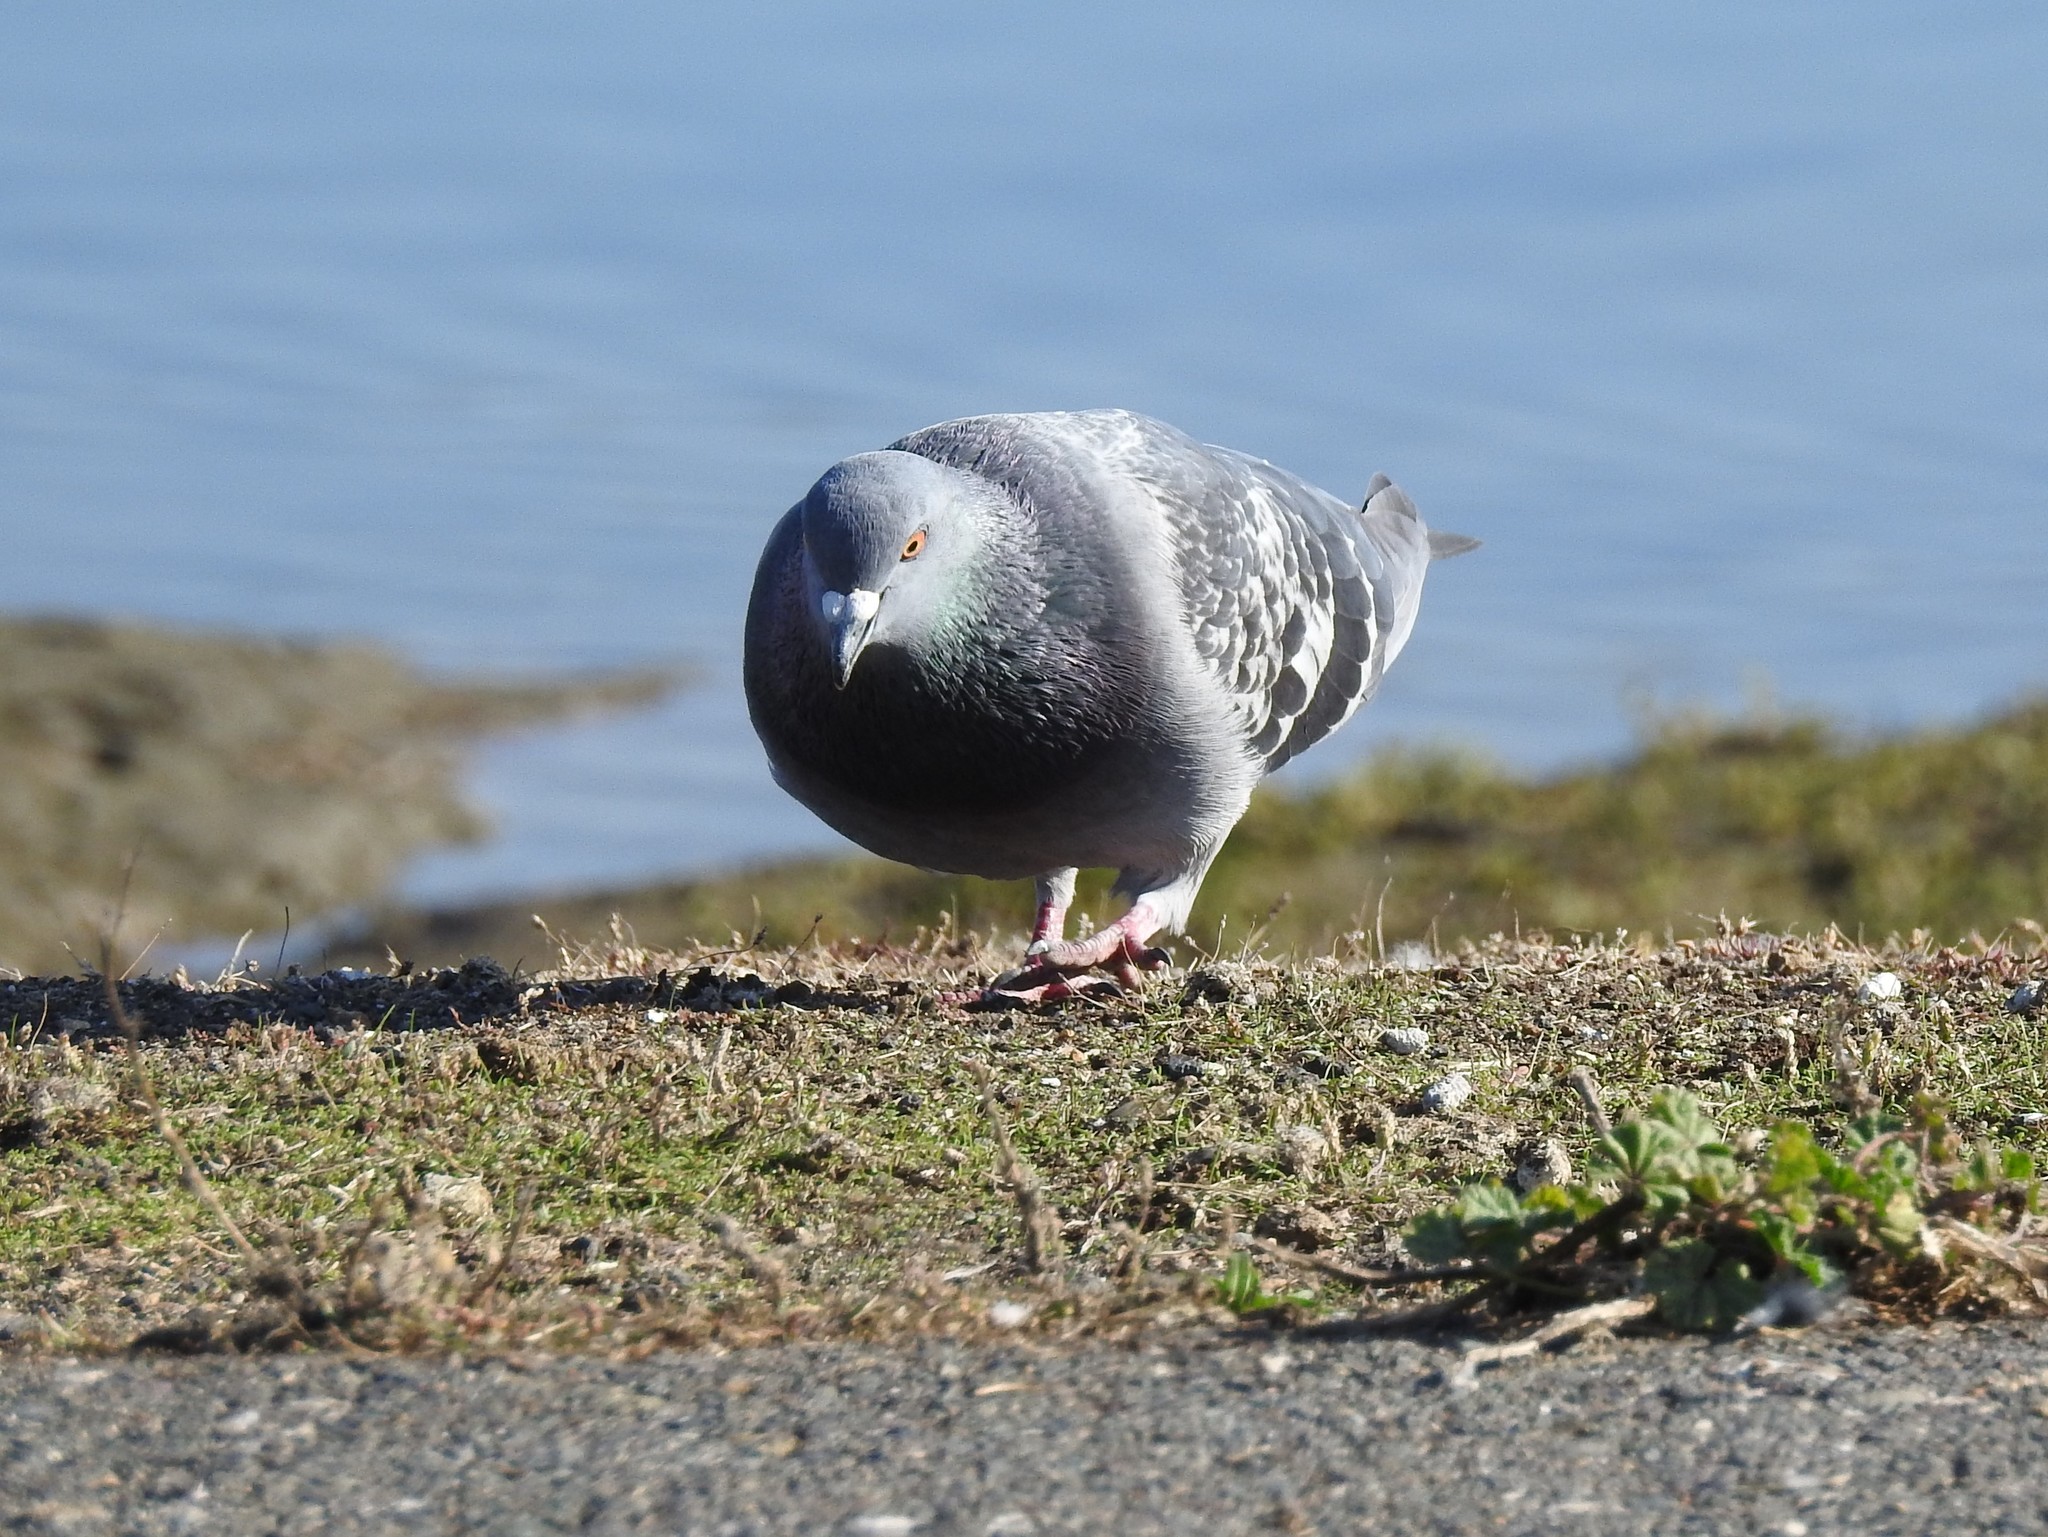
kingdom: Animalia
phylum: Chordata
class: Aves
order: Columbiformes
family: Columbidae
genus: Columba
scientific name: Columba livia
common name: Rock pigeon
